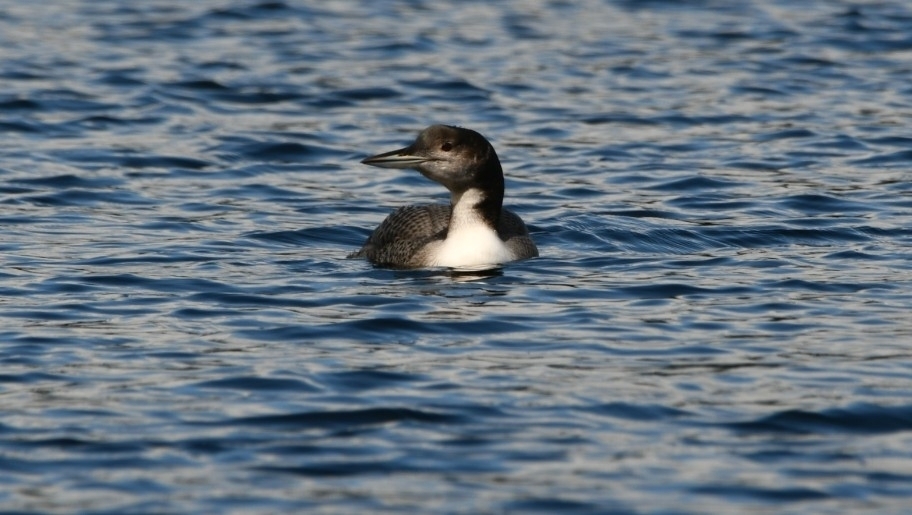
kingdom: Animalia
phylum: Chordata
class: Aves
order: Gaviiformes
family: Gaviidae
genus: Gavia
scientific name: Gavia immer
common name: Common loon
